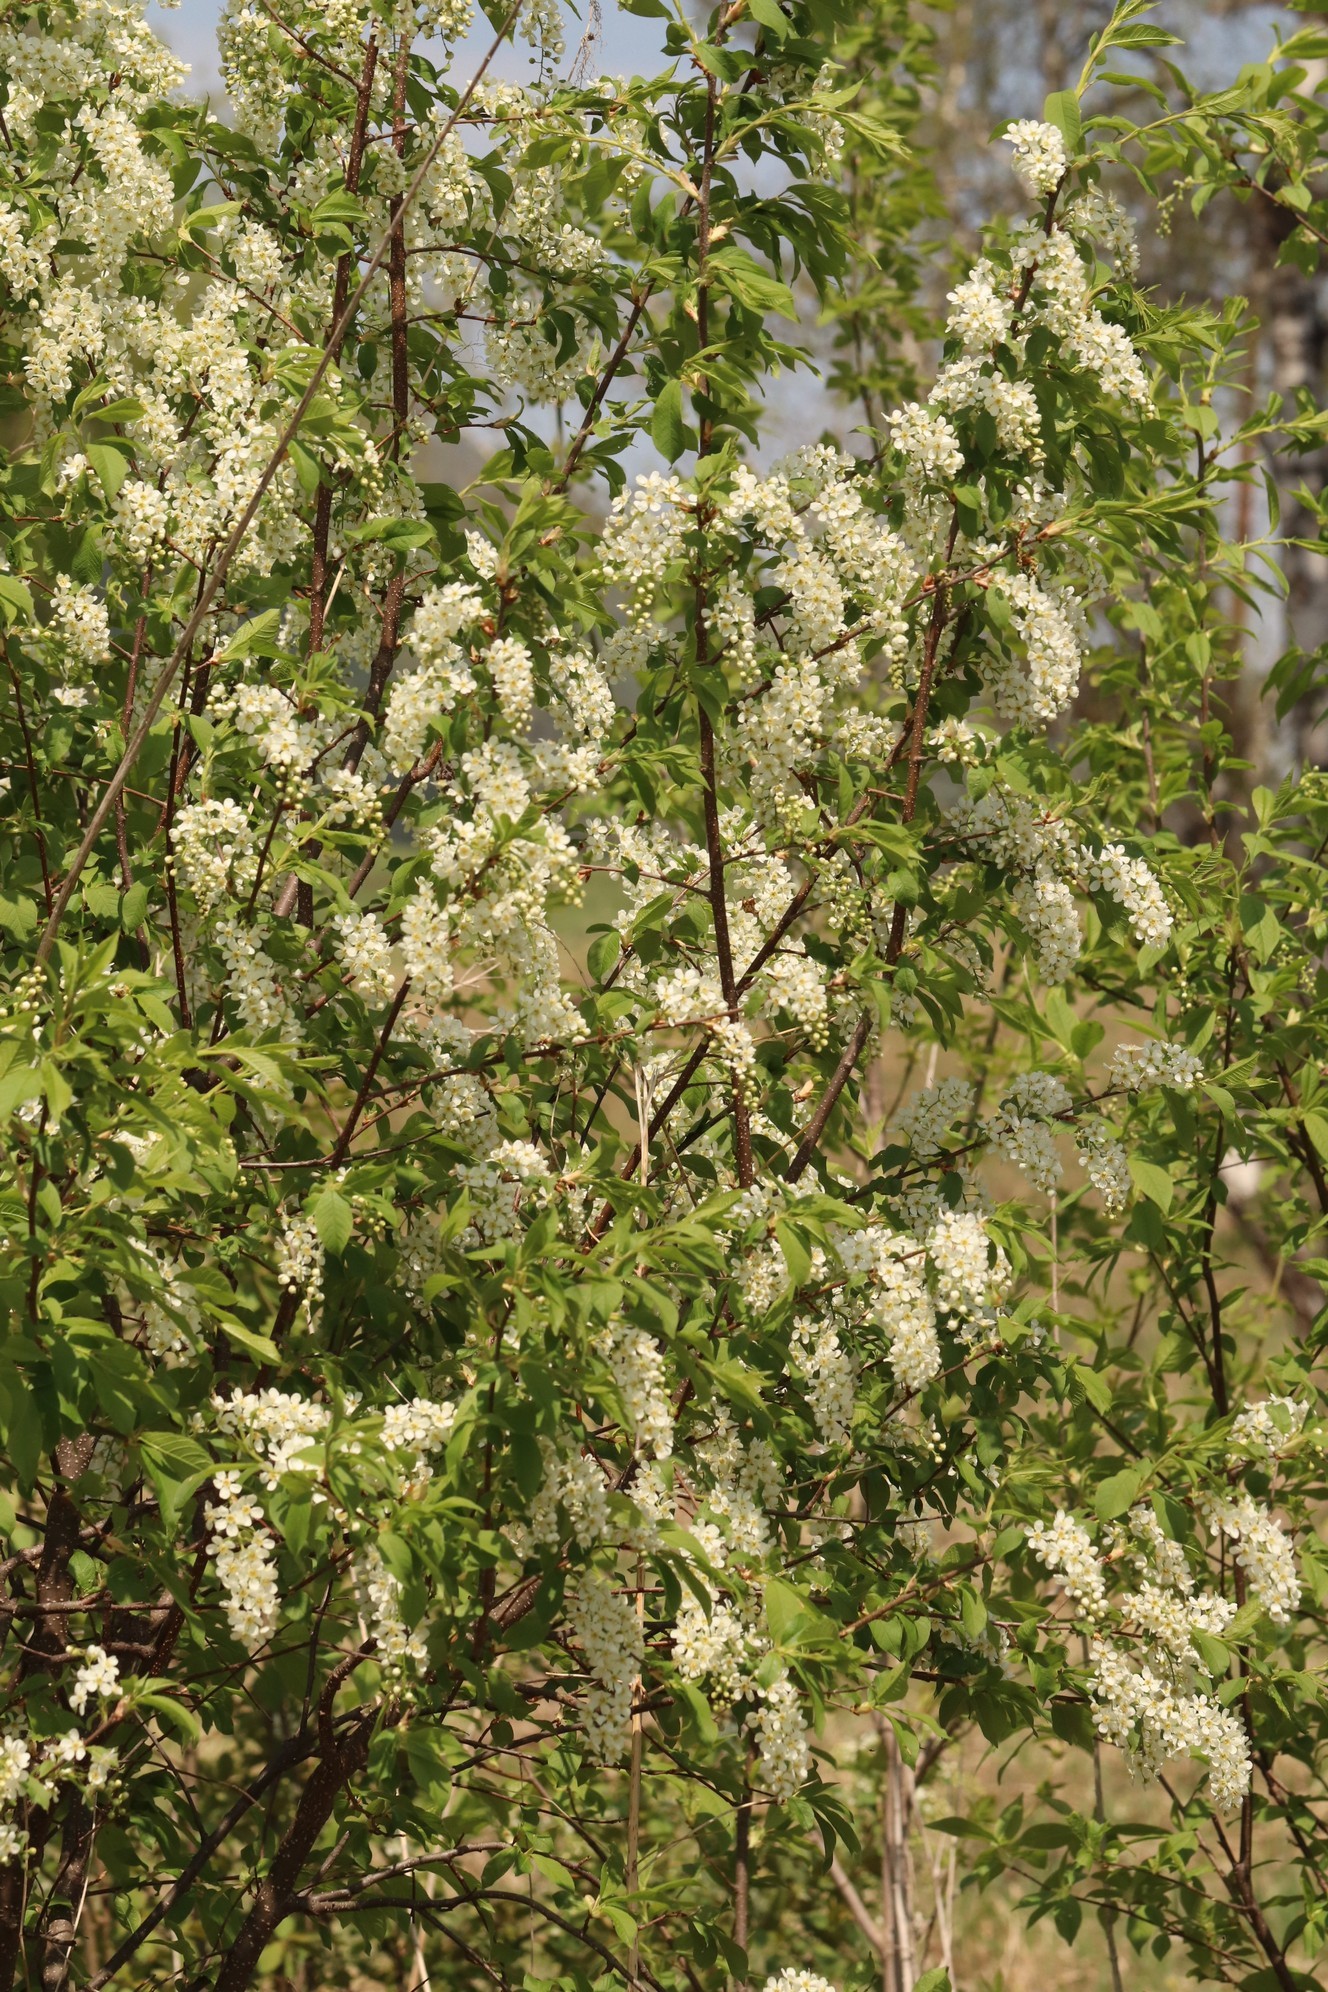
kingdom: Plantae
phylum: Tracheophyta
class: Magnoliopsida
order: Rosales
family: Rosaceae
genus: Prunus
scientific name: Prunus padus
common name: Bird cherry
